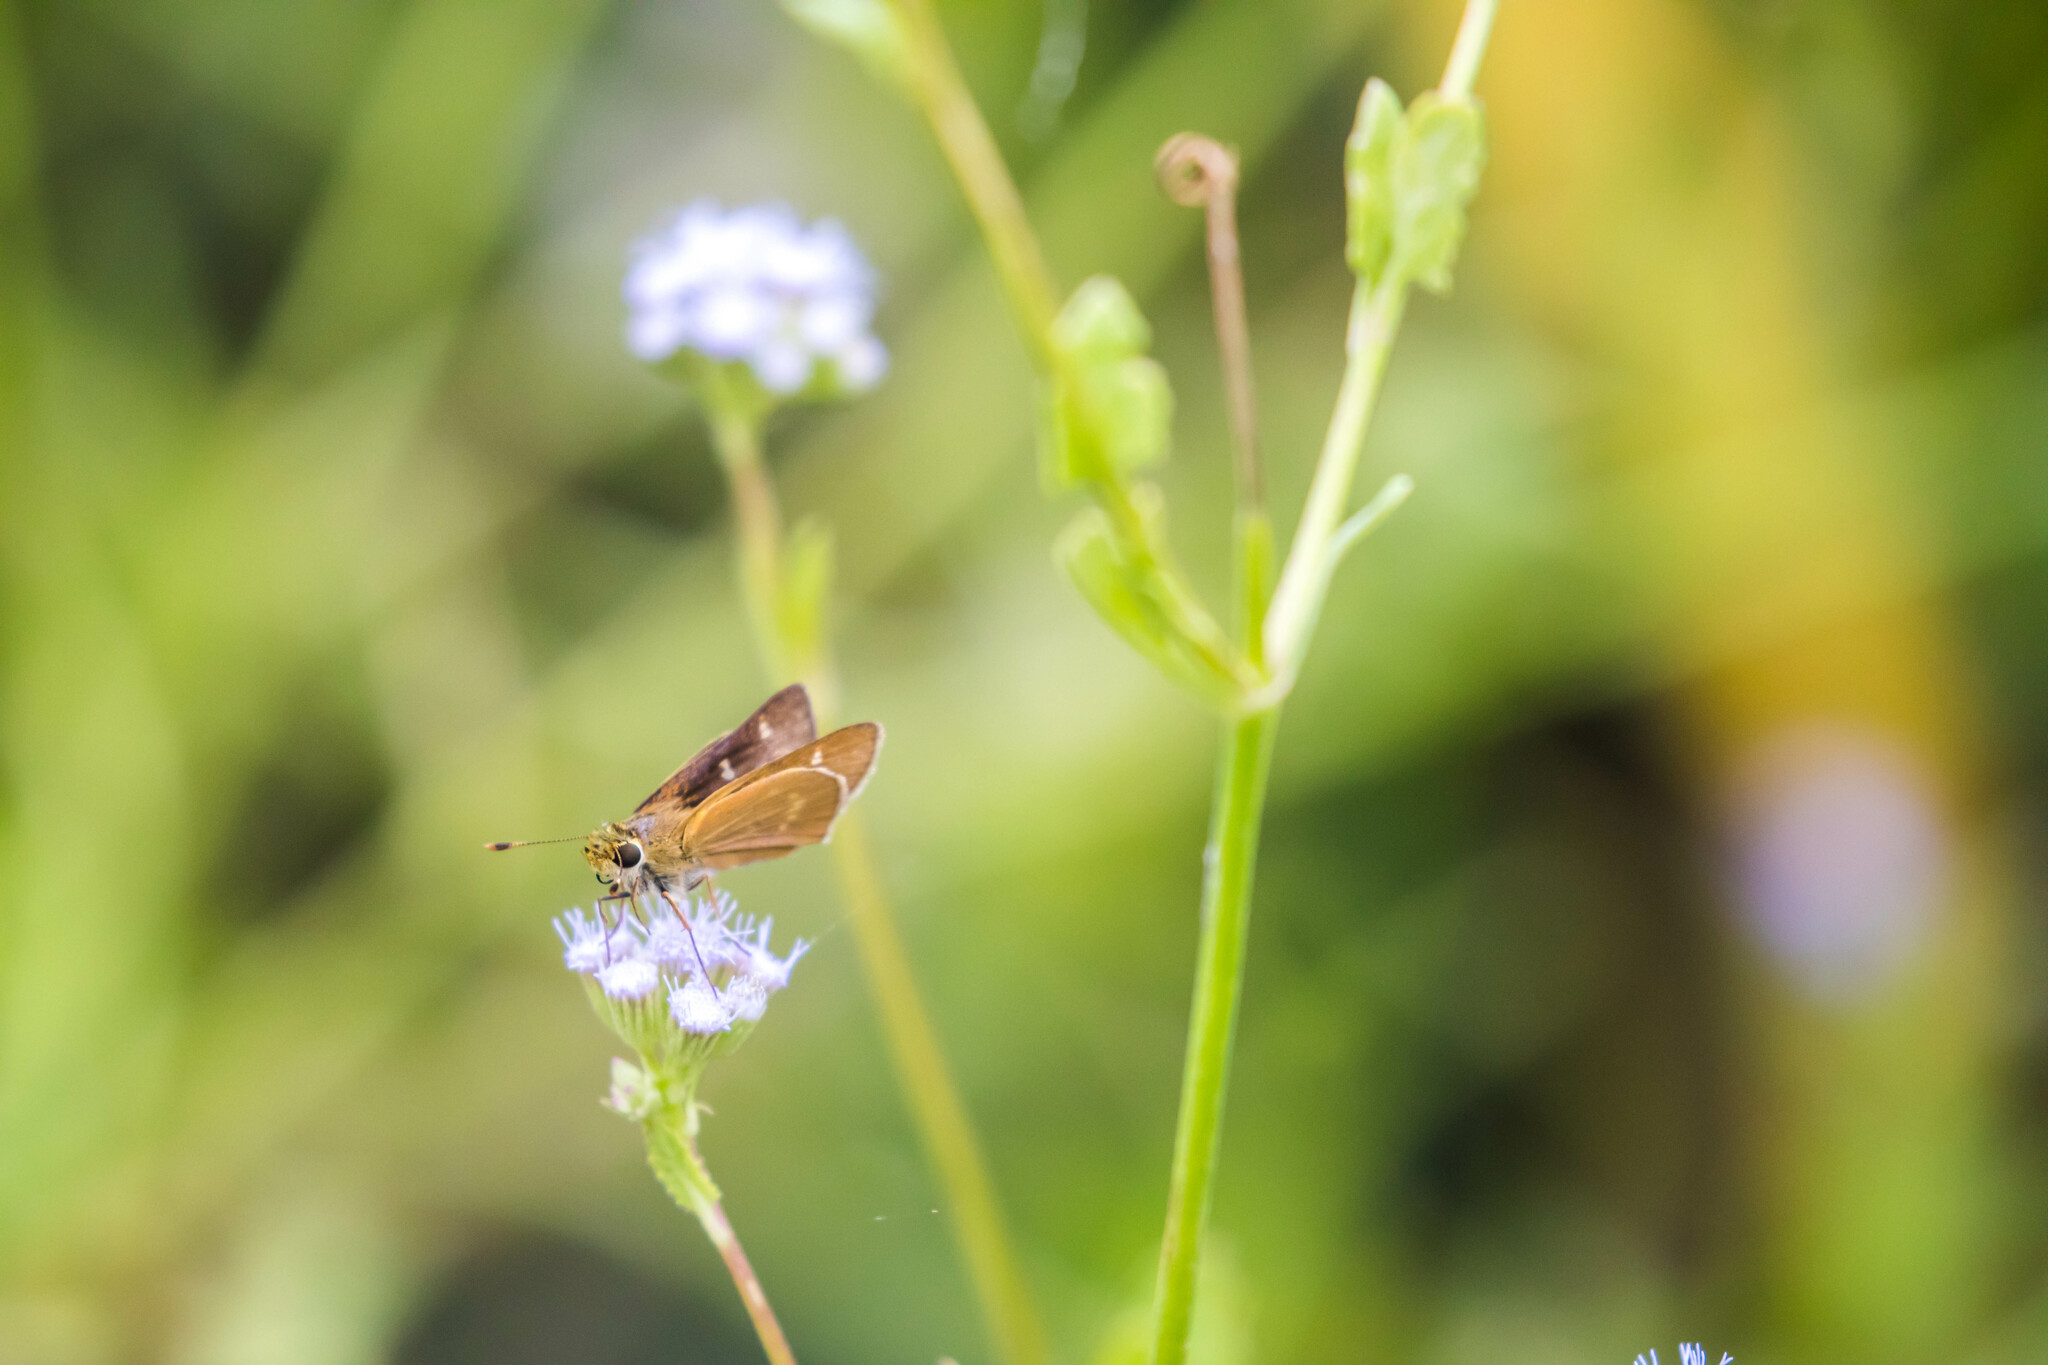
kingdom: Animalia
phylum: Arthropoda
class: Insecta
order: Lepidoptera
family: Hesperiidae
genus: Mellana
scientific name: Mellana eulogius
